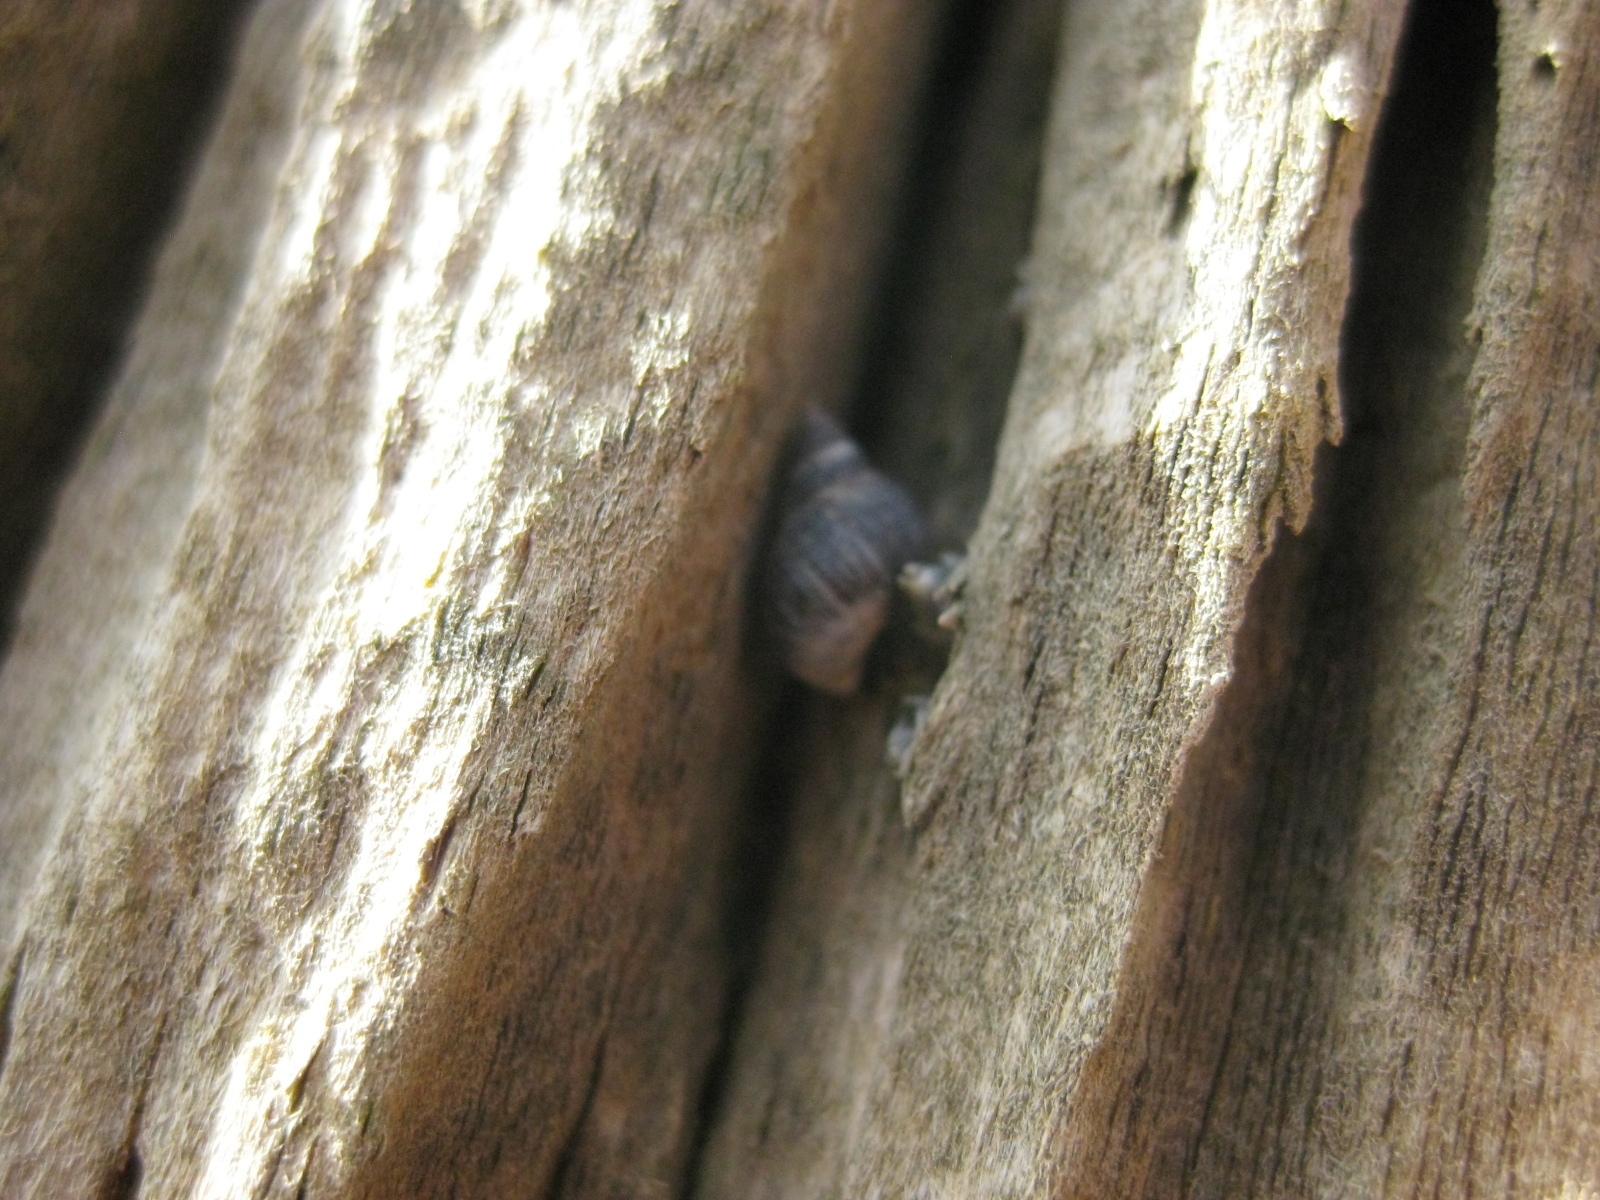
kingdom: Animalia
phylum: Mollusca
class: Gastropoda
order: Littorinimorpha
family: Littorinidae
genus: Austrolittorina
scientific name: Austrolittorina antipodum
